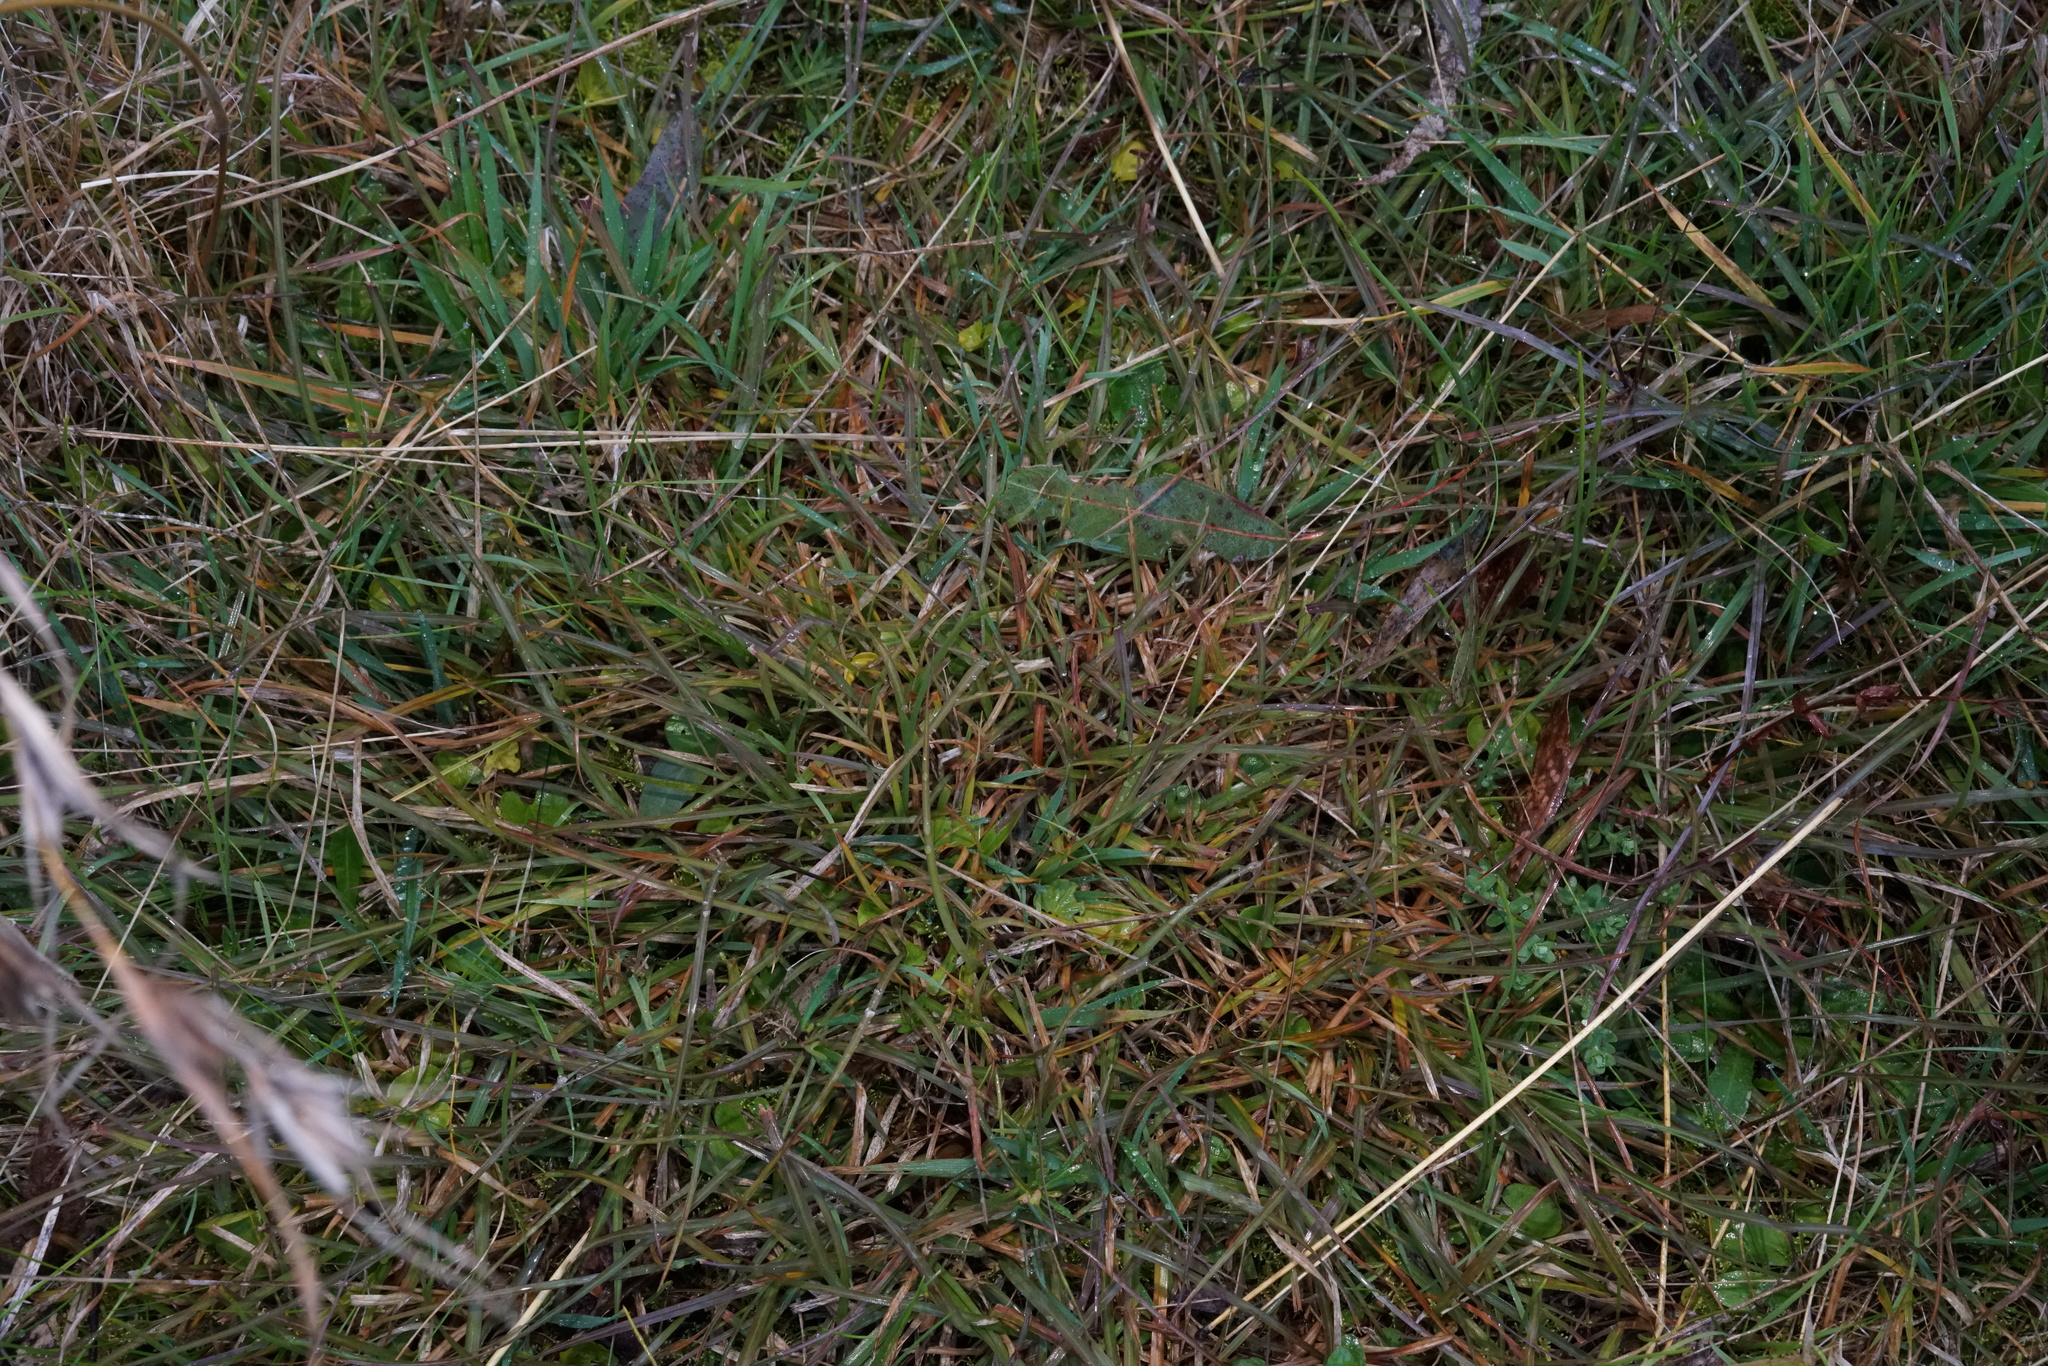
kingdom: Plantae
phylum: Tracheophyta
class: Liliopsida
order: Poales
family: Poaceae
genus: Themeda
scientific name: Themeda triandra
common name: Kangaroo grass
